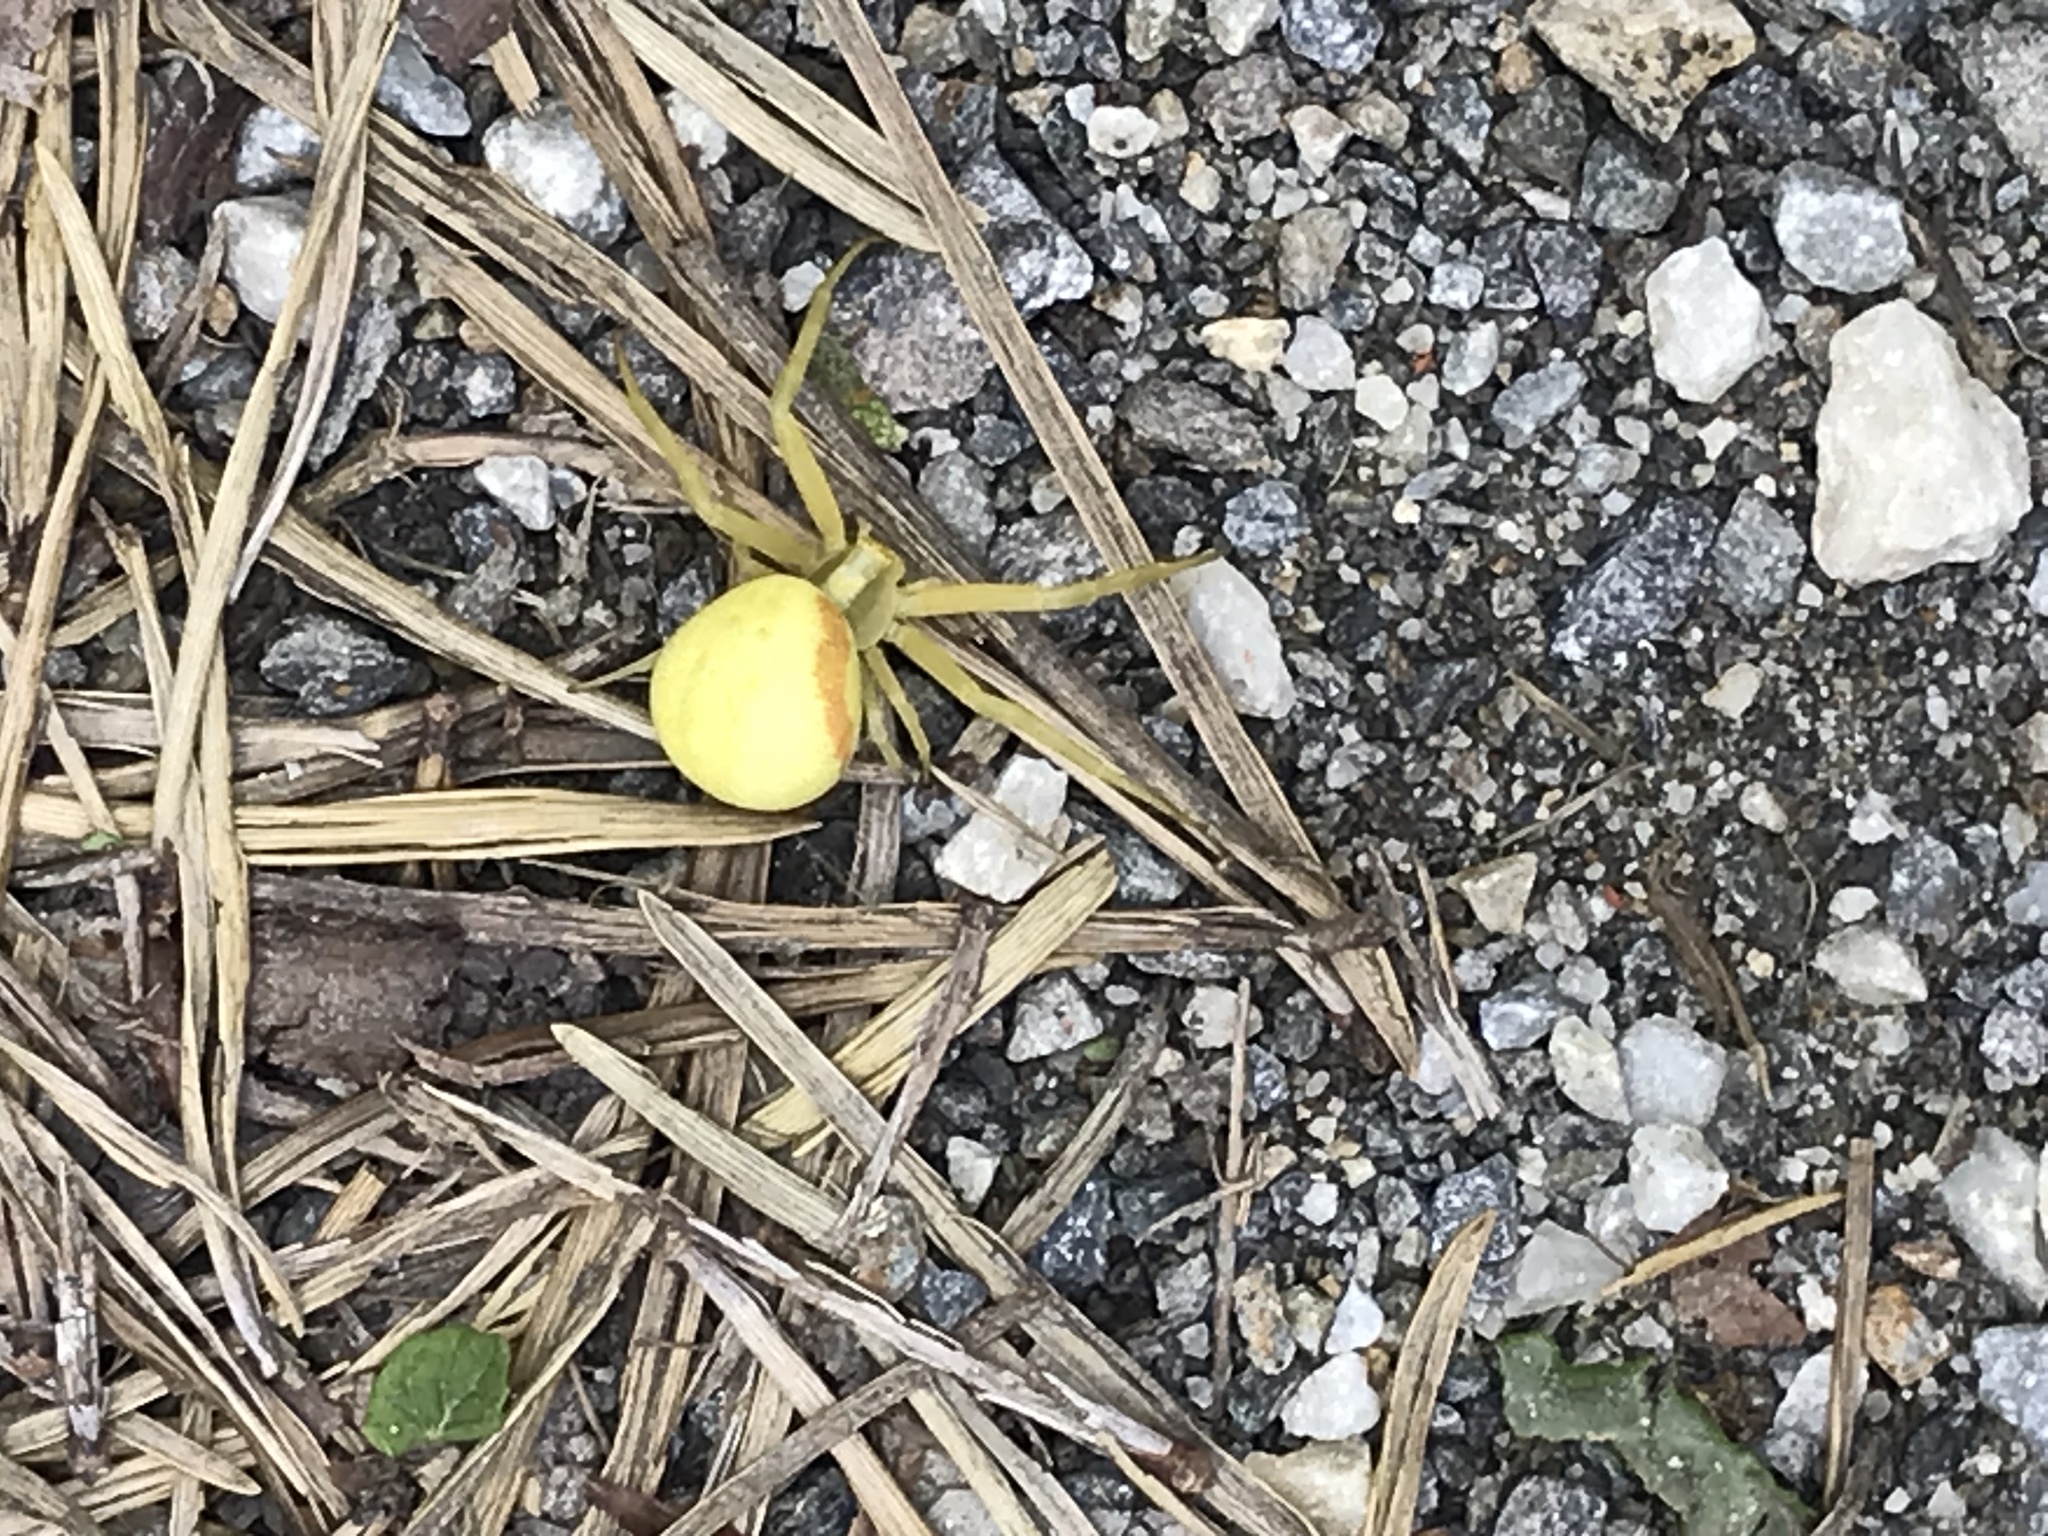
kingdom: Animalia
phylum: Arthropoda
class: Arachnida
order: Araneae
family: Thomisidae
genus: Misumena
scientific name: Misumena vatia
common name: Goldenrod crab spider
